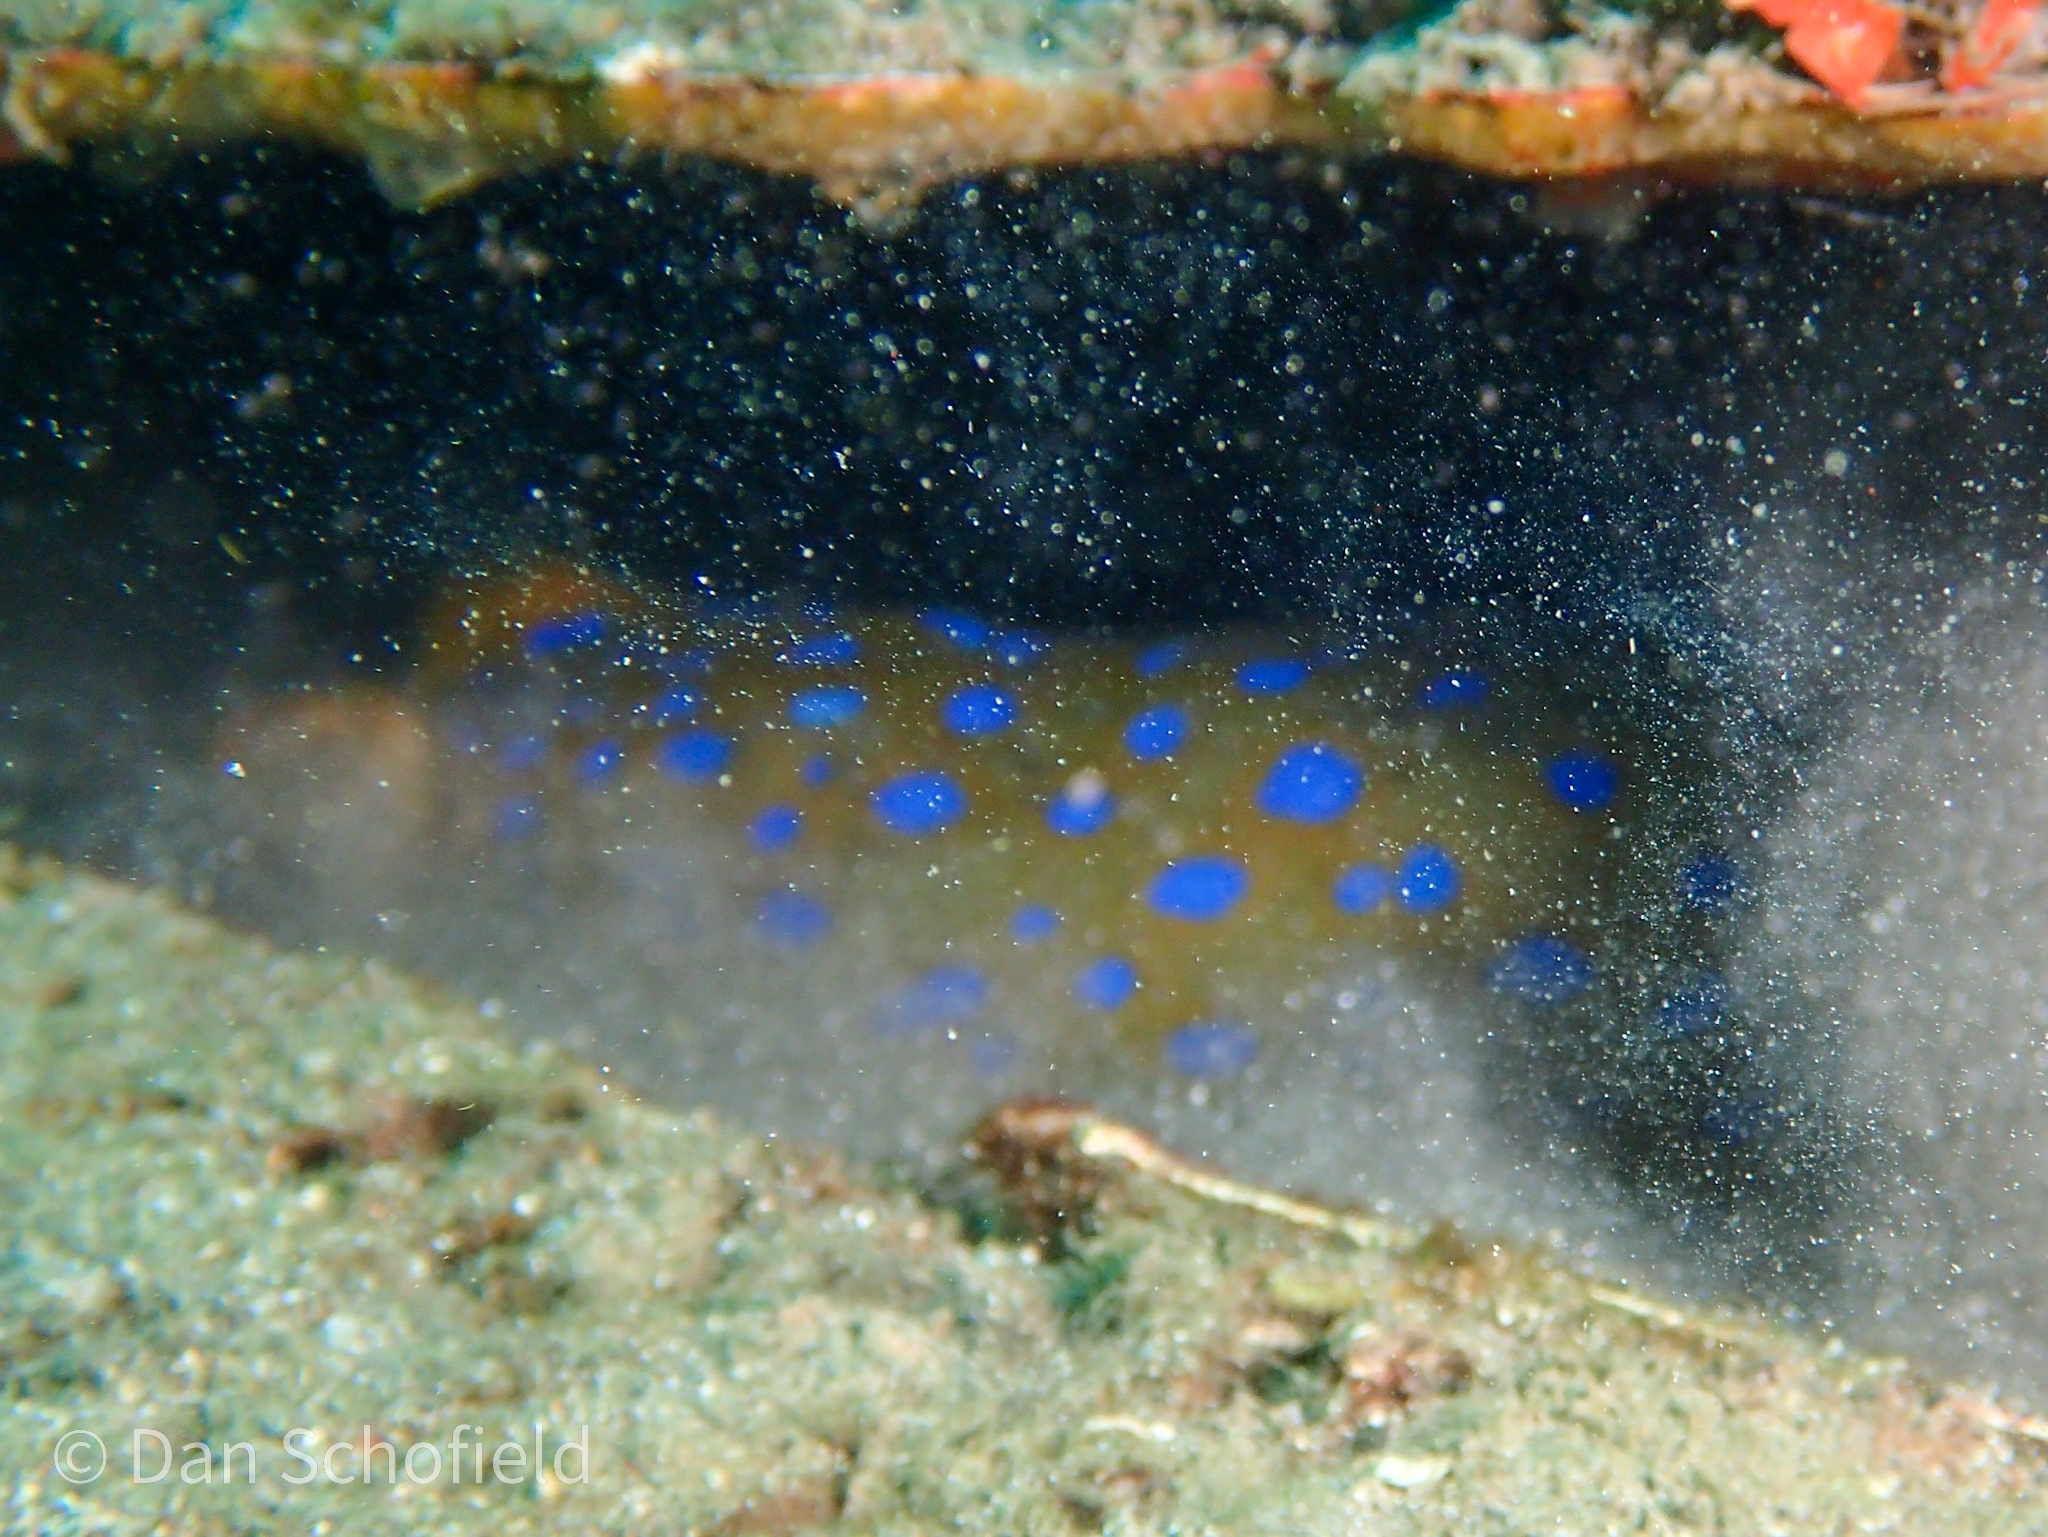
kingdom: Animalia
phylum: Chordata
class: Elasmobranchii
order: Myliobatiformes
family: Dasyatidae
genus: Taeniura
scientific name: Taeniura lymma
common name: Bluespotted ribbontail ray
